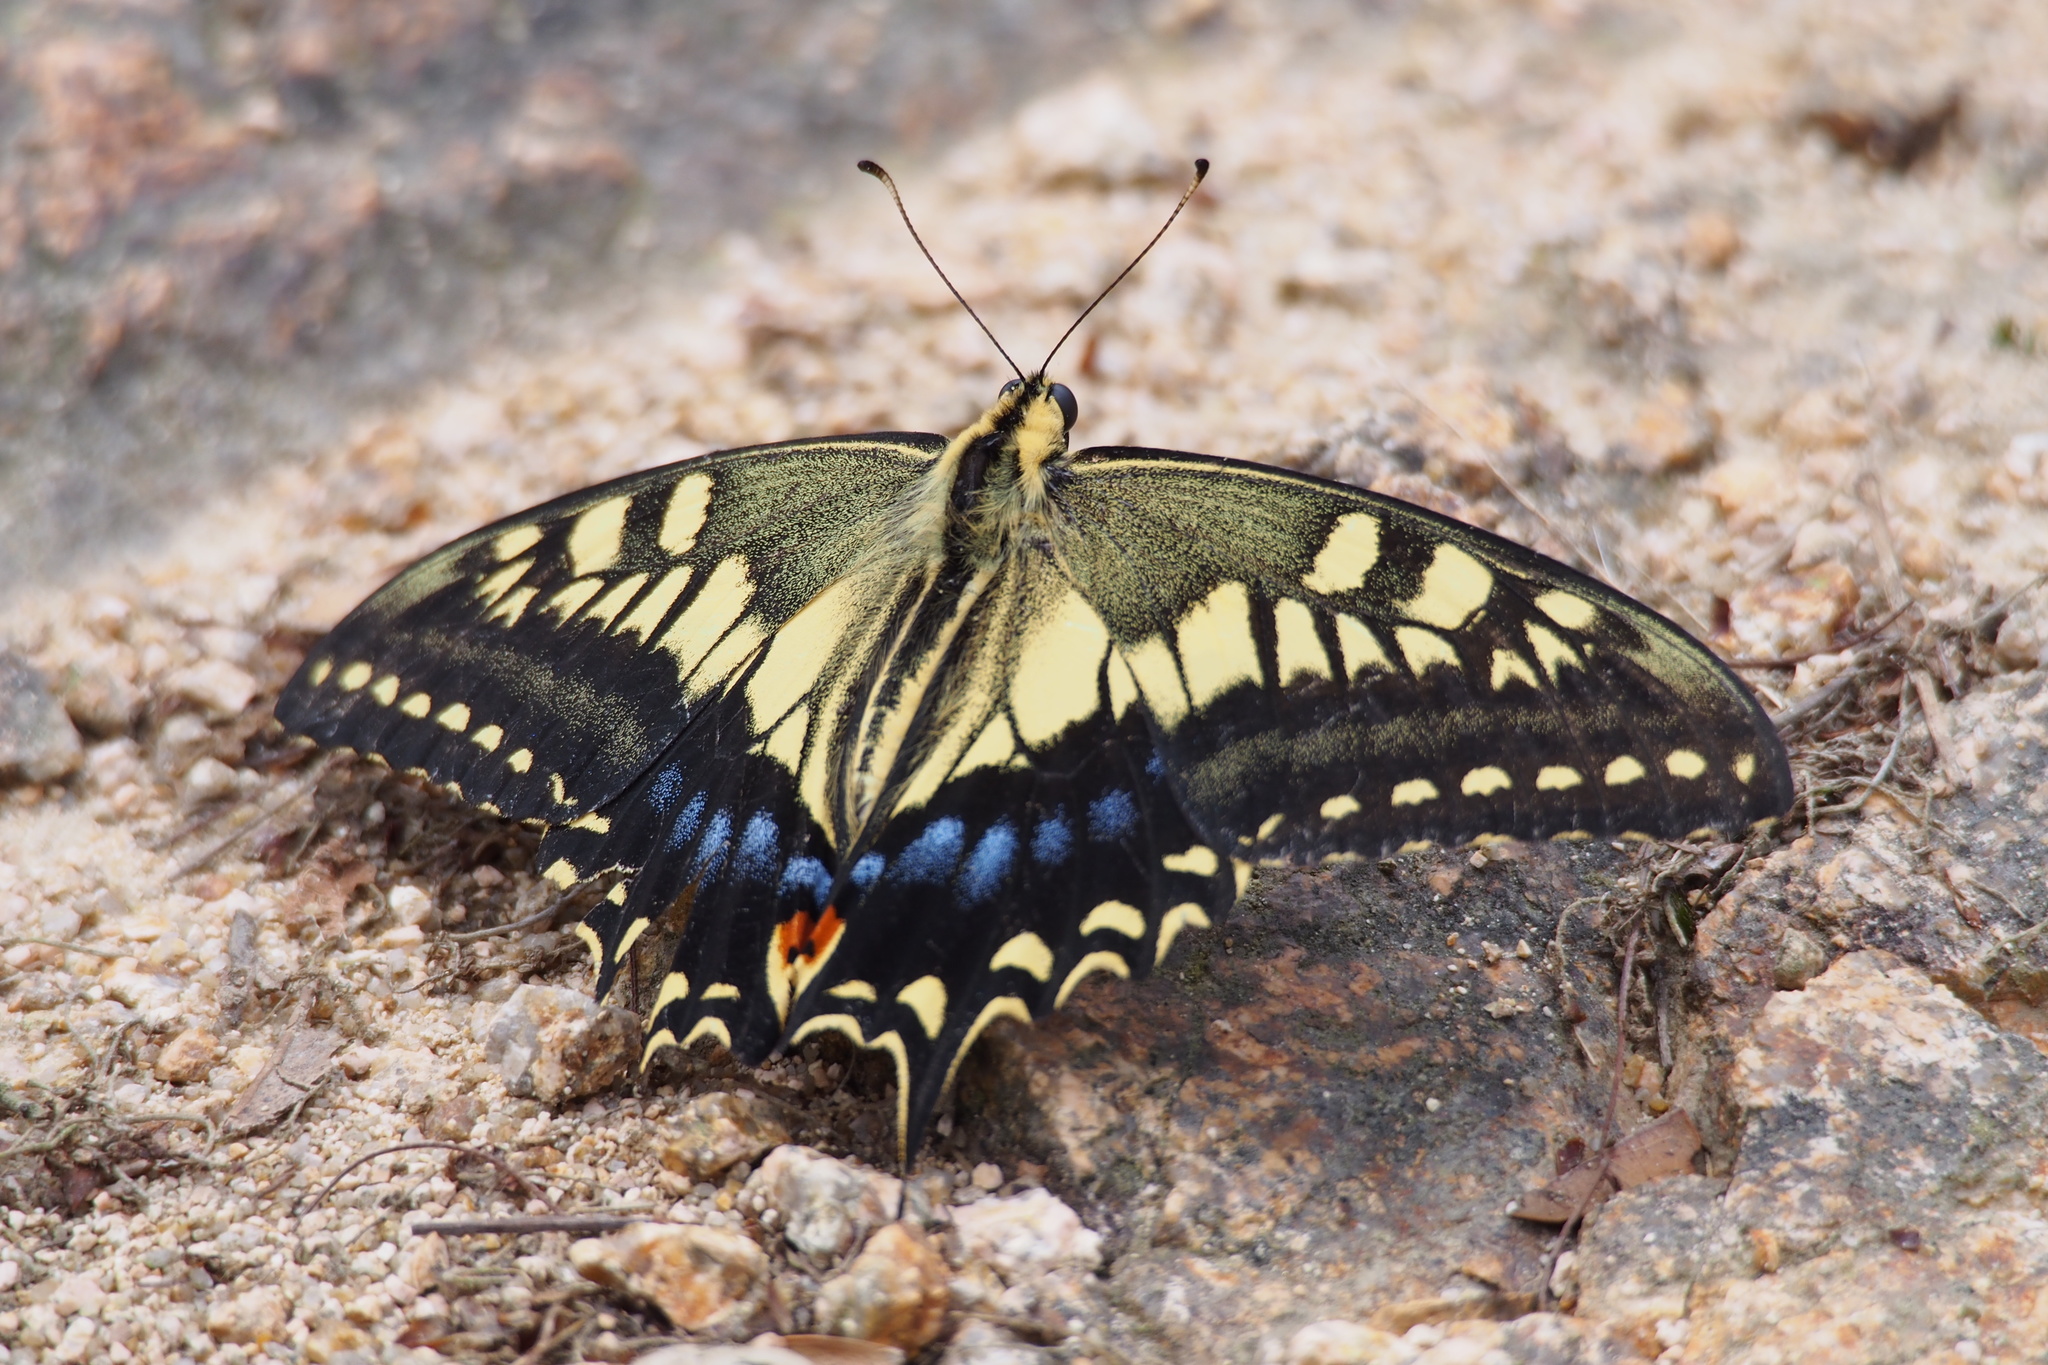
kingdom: Animalia
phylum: Arthropoda
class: Insecta
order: Lepidoptera
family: Papilionidae
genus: Papilio
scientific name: Papilio machaon
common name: Swallowtail
